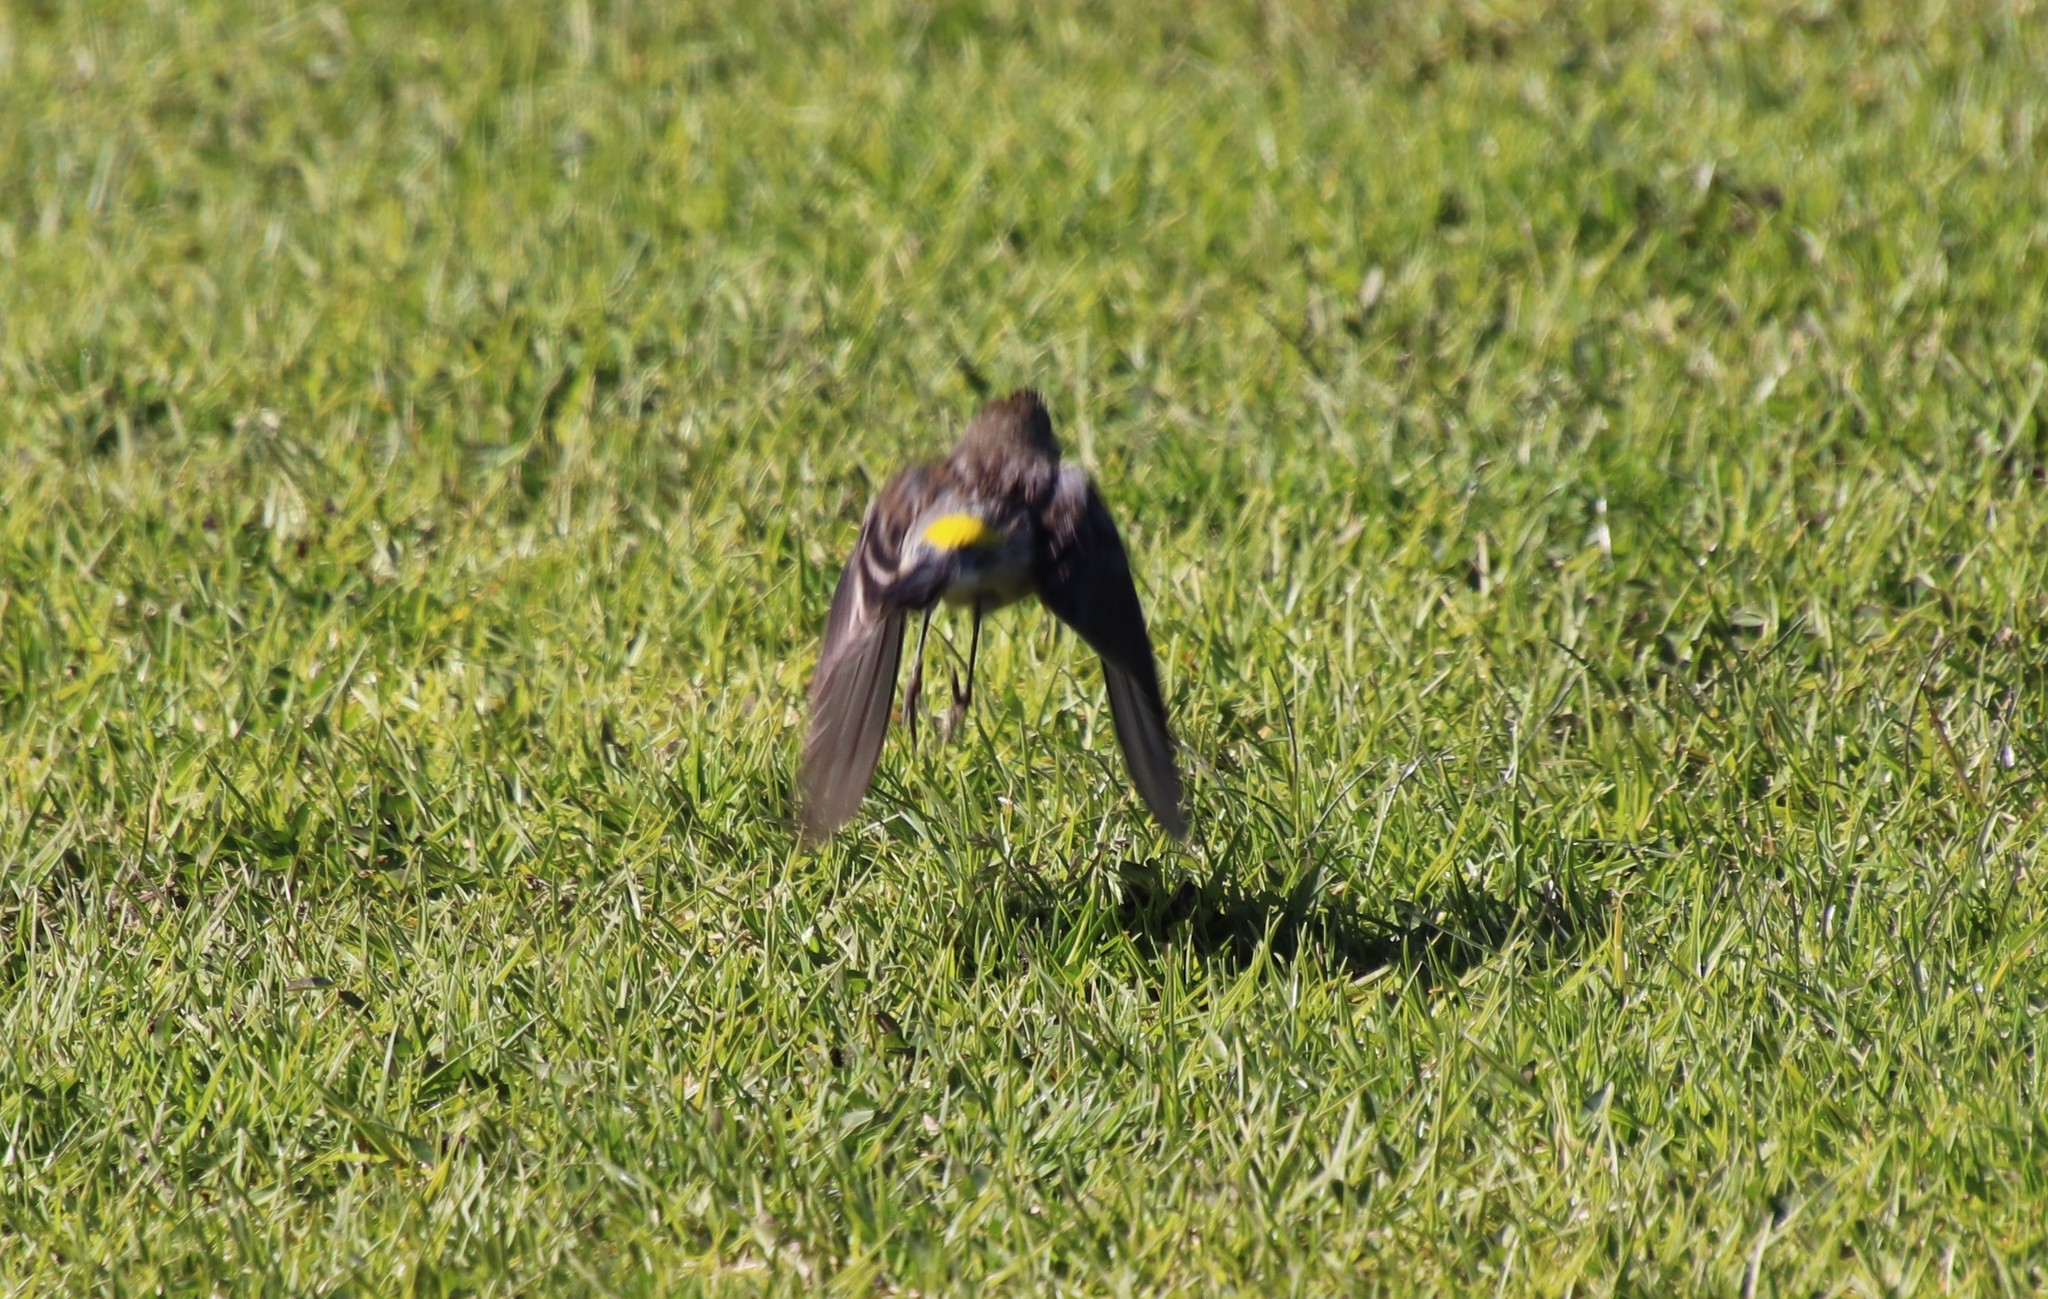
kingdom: Animalia
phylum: Chordata
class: Aves
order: Passeriformes
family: Parulidae
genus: Setophaga
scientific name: Setophaga coronata
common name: Myrtle warbler
